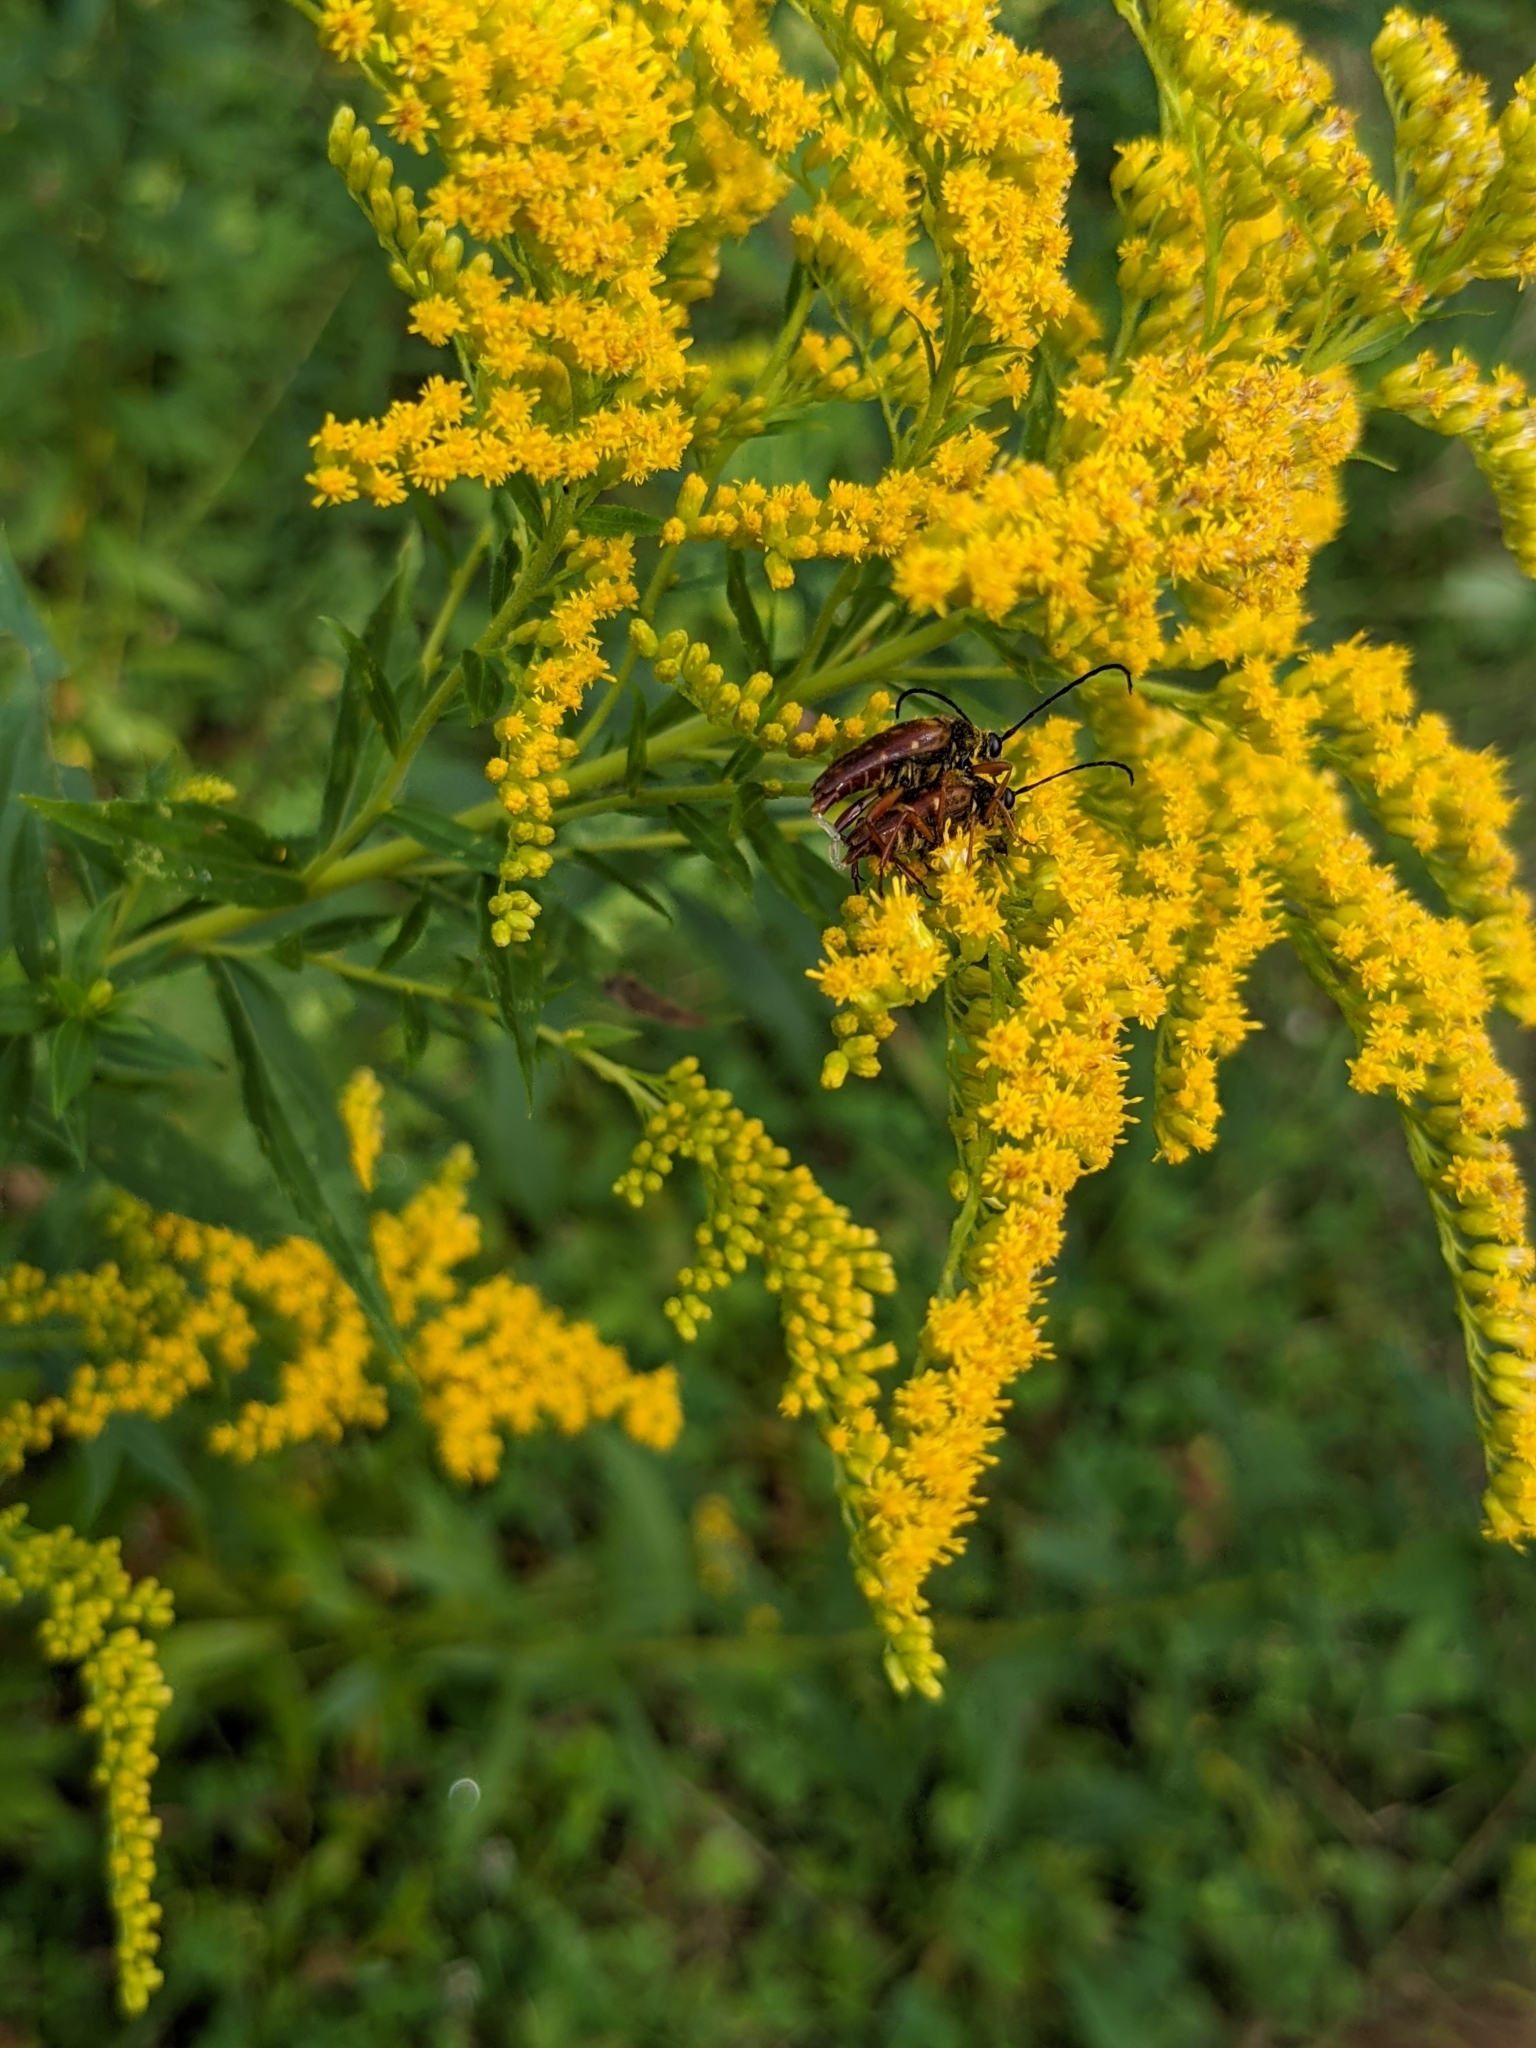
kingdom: Animalia
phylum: Arthropoda
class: Insecta
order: Coleoptera
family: Cerambycidae
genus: Typocerus
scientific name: Typocerus velutinus
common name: Banded longhorn beetle
